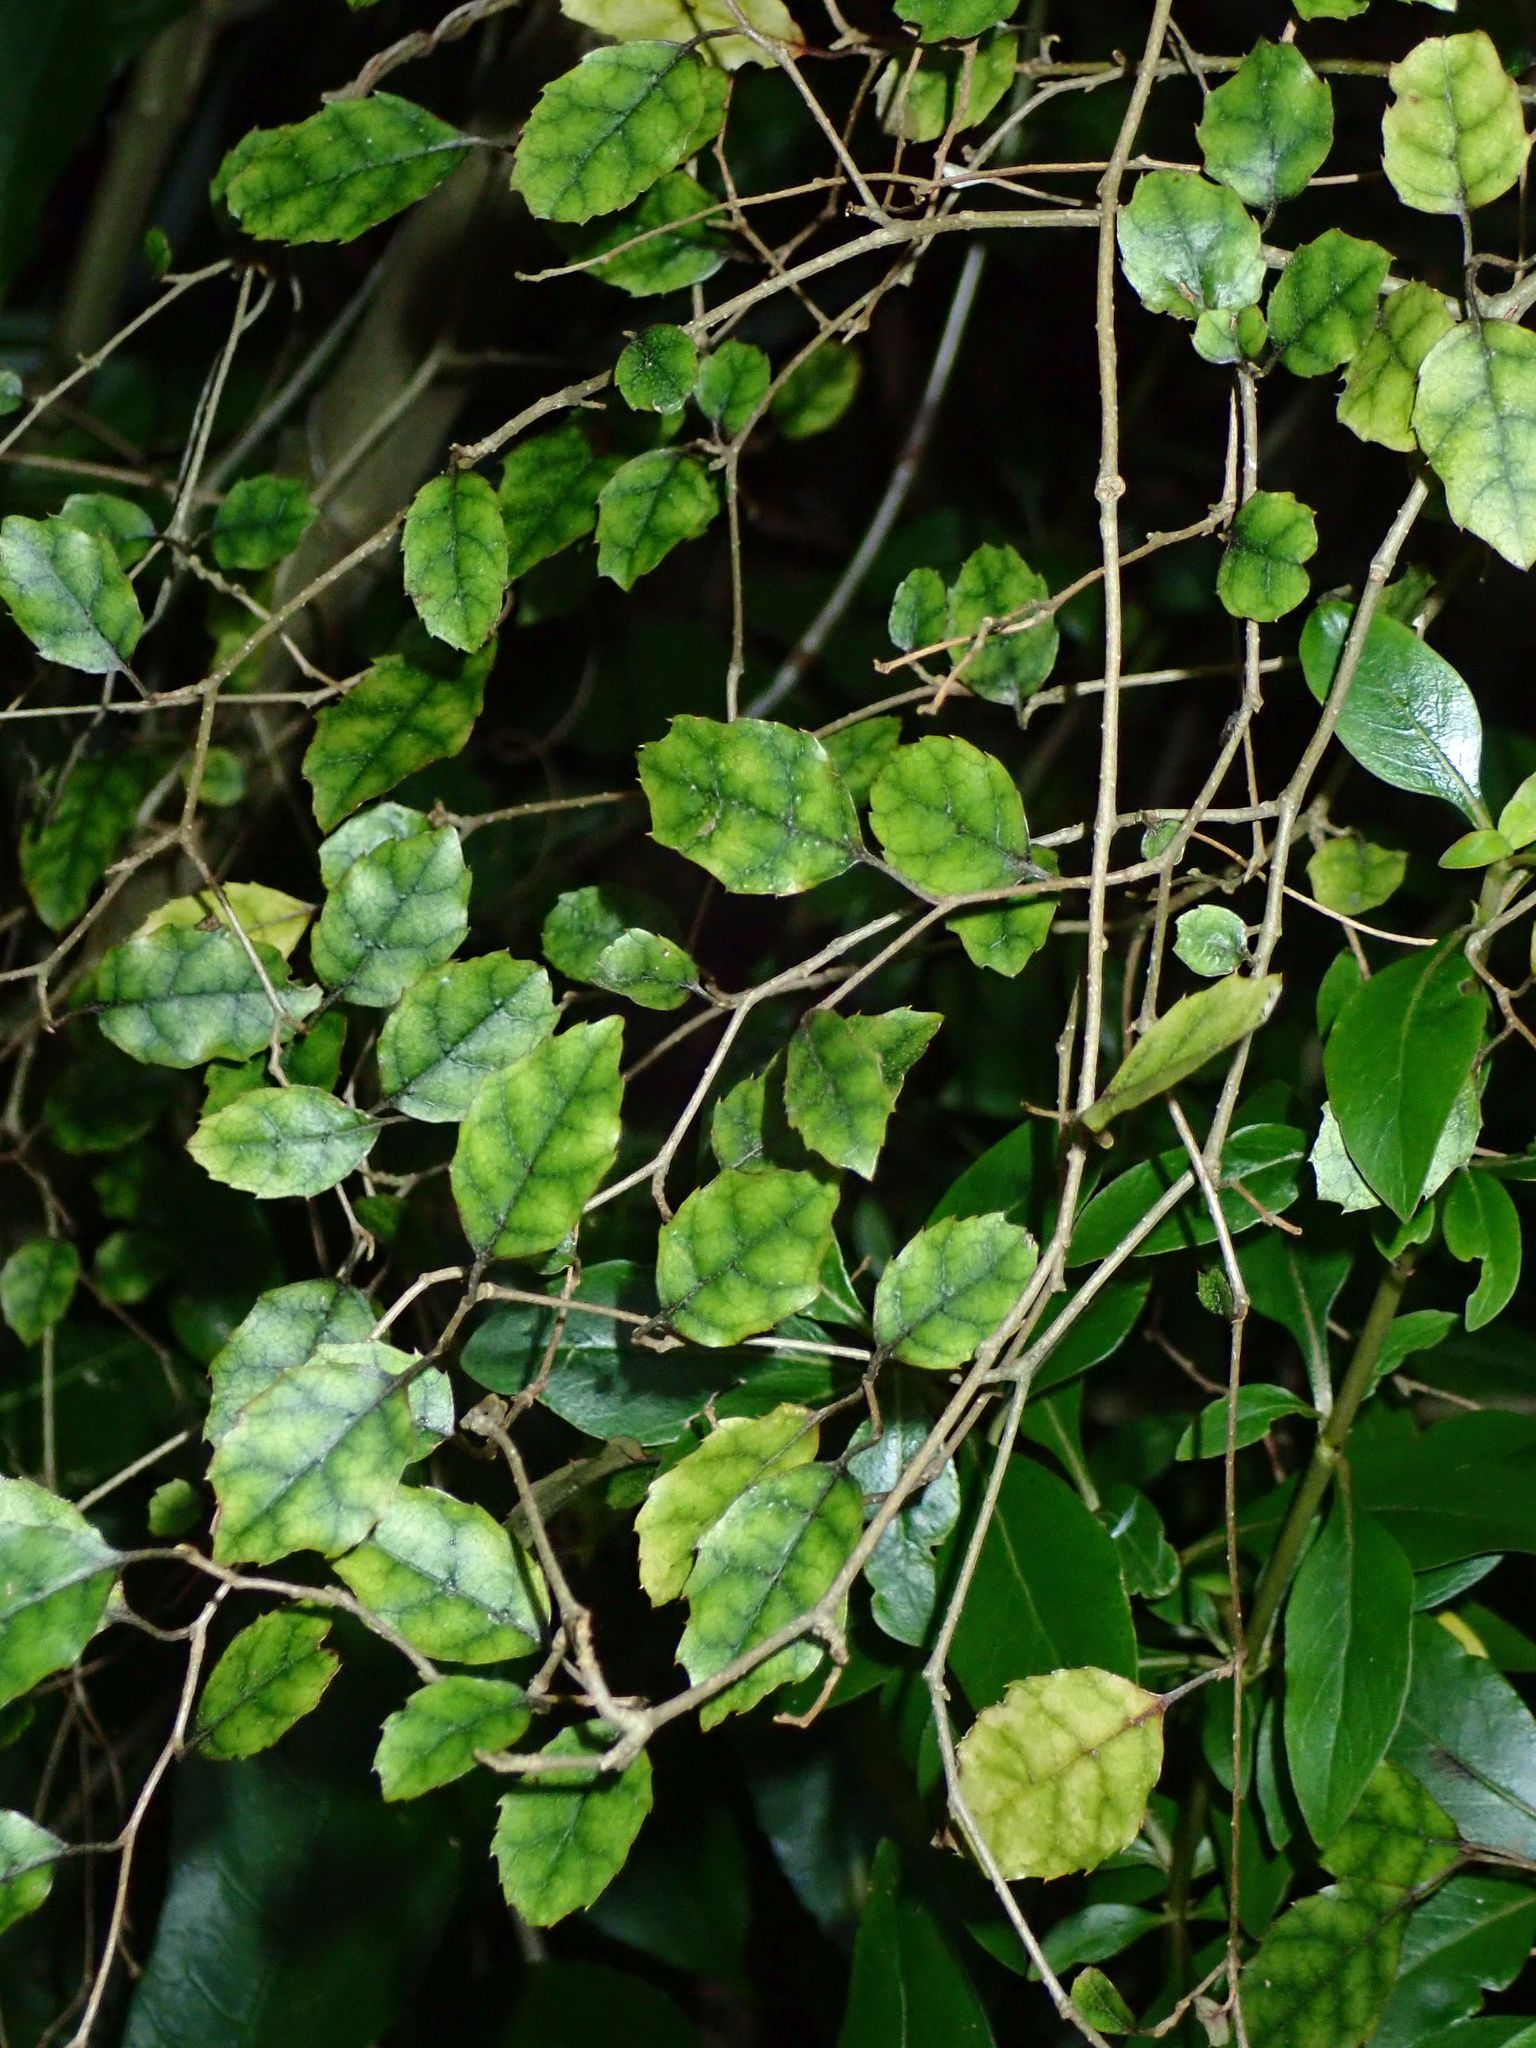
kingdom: Plantae
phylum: Tracheophyta
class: Magnoliopsida
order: Asterales
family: Rousseaceae
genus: Carpodetus
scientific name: Carpodetus serratus
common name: White mapau
